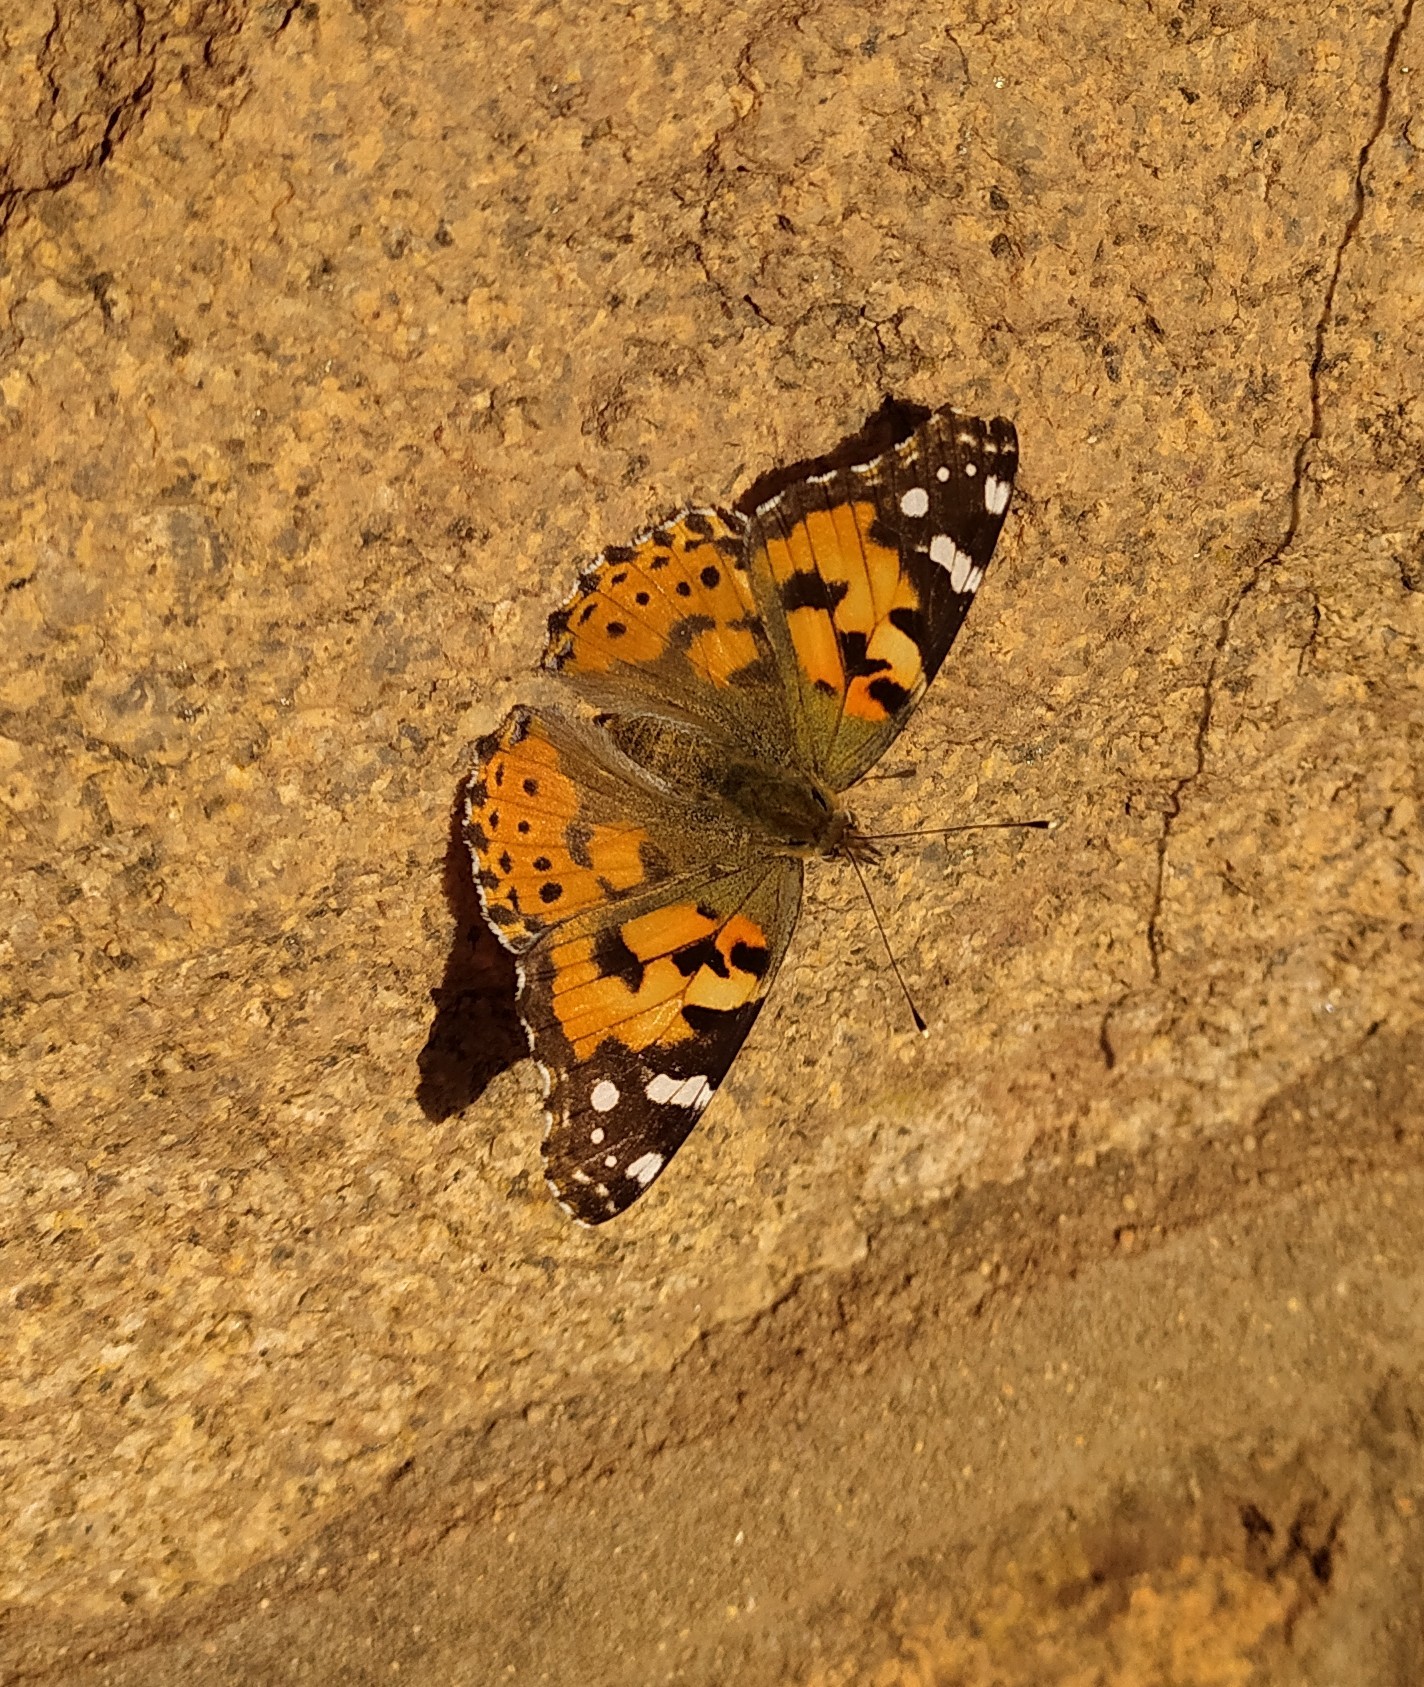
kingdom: Animalia
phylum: Arthropoda
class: Insecta
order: Lepidoptera
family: Nymphalidae
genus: Vanessa
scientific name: Vanessa cardui
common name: Painted lady
